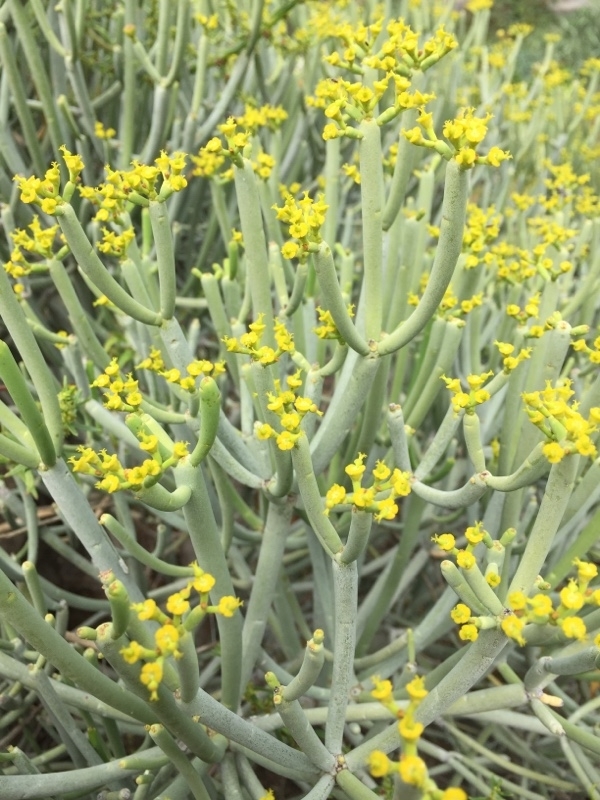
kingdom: Plantae
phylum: Tracheophyta
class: Magnoliopsida
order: Malpighiales
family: Euphorbiaceae
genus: Euphorbia
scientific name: Euphorbia aphylla
